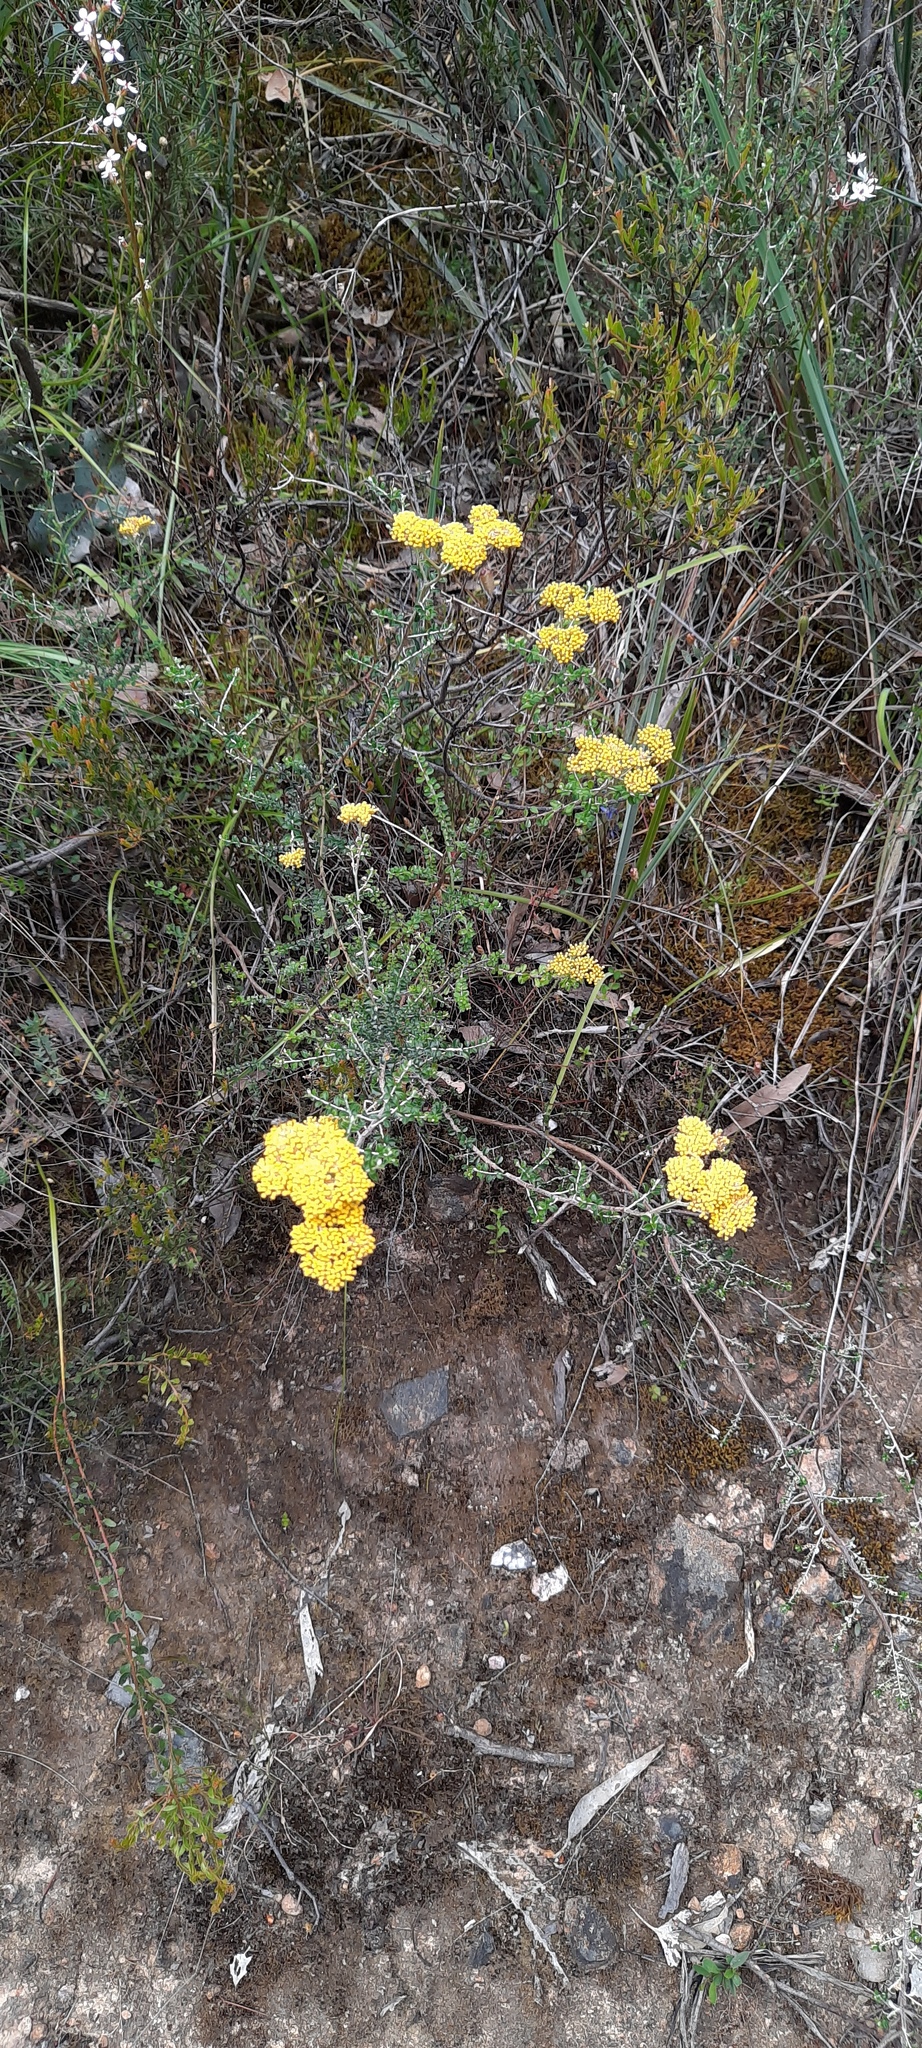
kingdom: Plantae
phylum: Tracheophyta
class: Magnoliopsida
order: Asterales
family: Asteraceae
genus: Ozothamnus
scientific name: Ozothamnus obcordatus
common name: Grey everlasting
